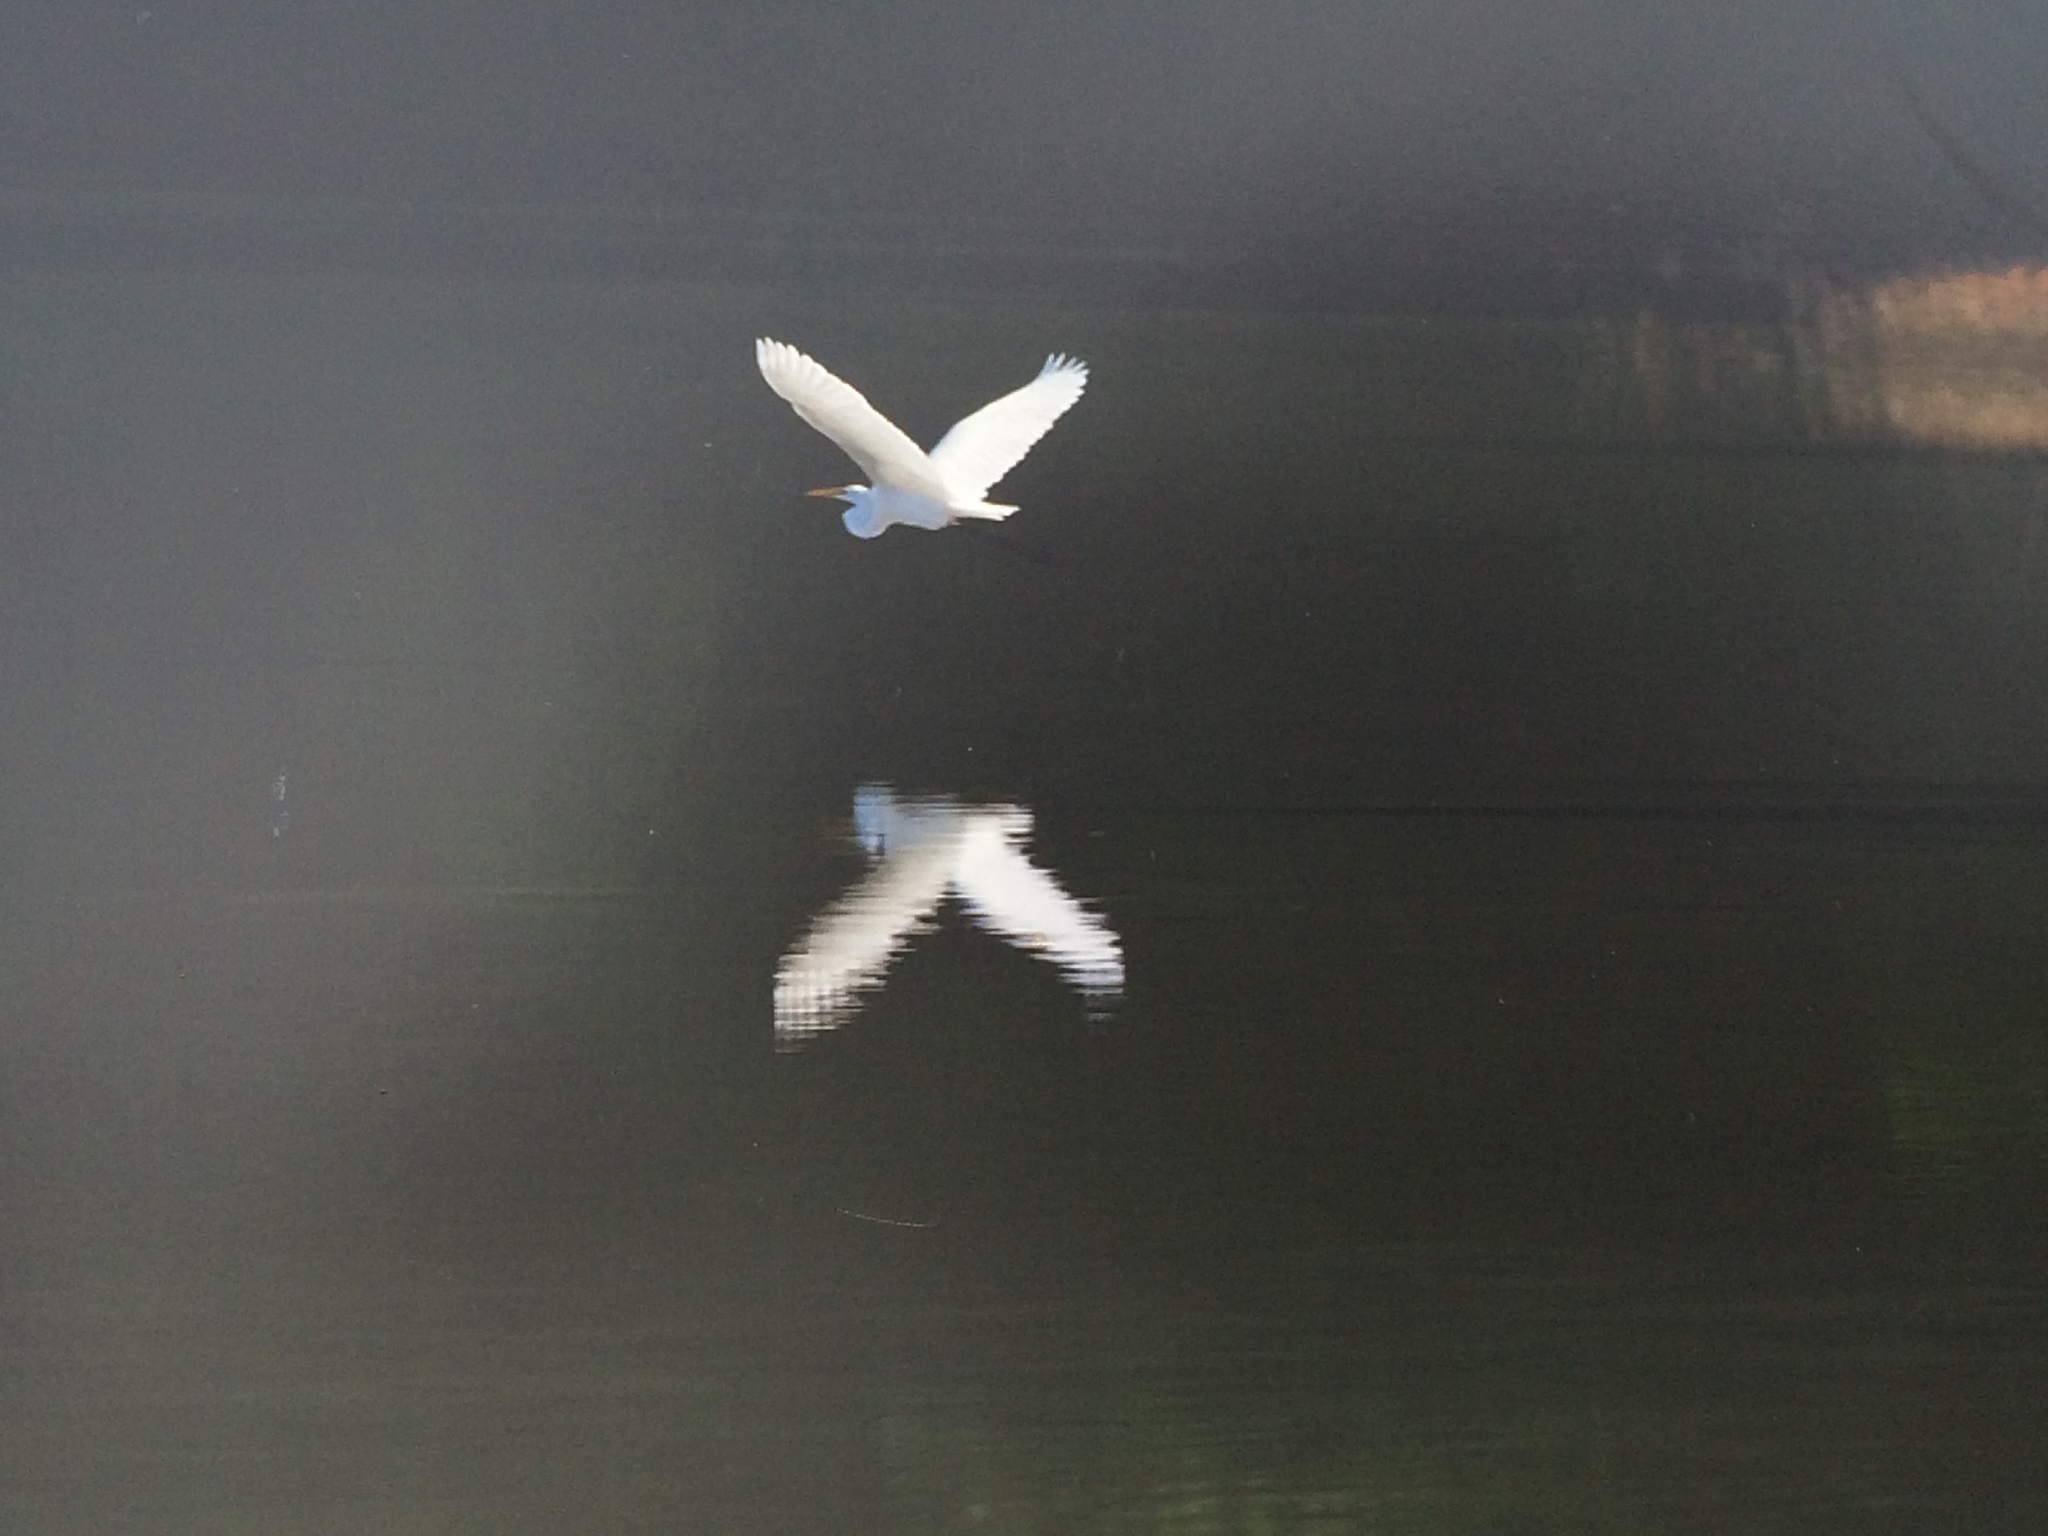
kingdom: Animalia
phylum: Chordata
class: Aves
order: Pelecaniformes
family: Ardeidae
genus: Ardea
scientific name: Ardea alba
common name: Great egret
